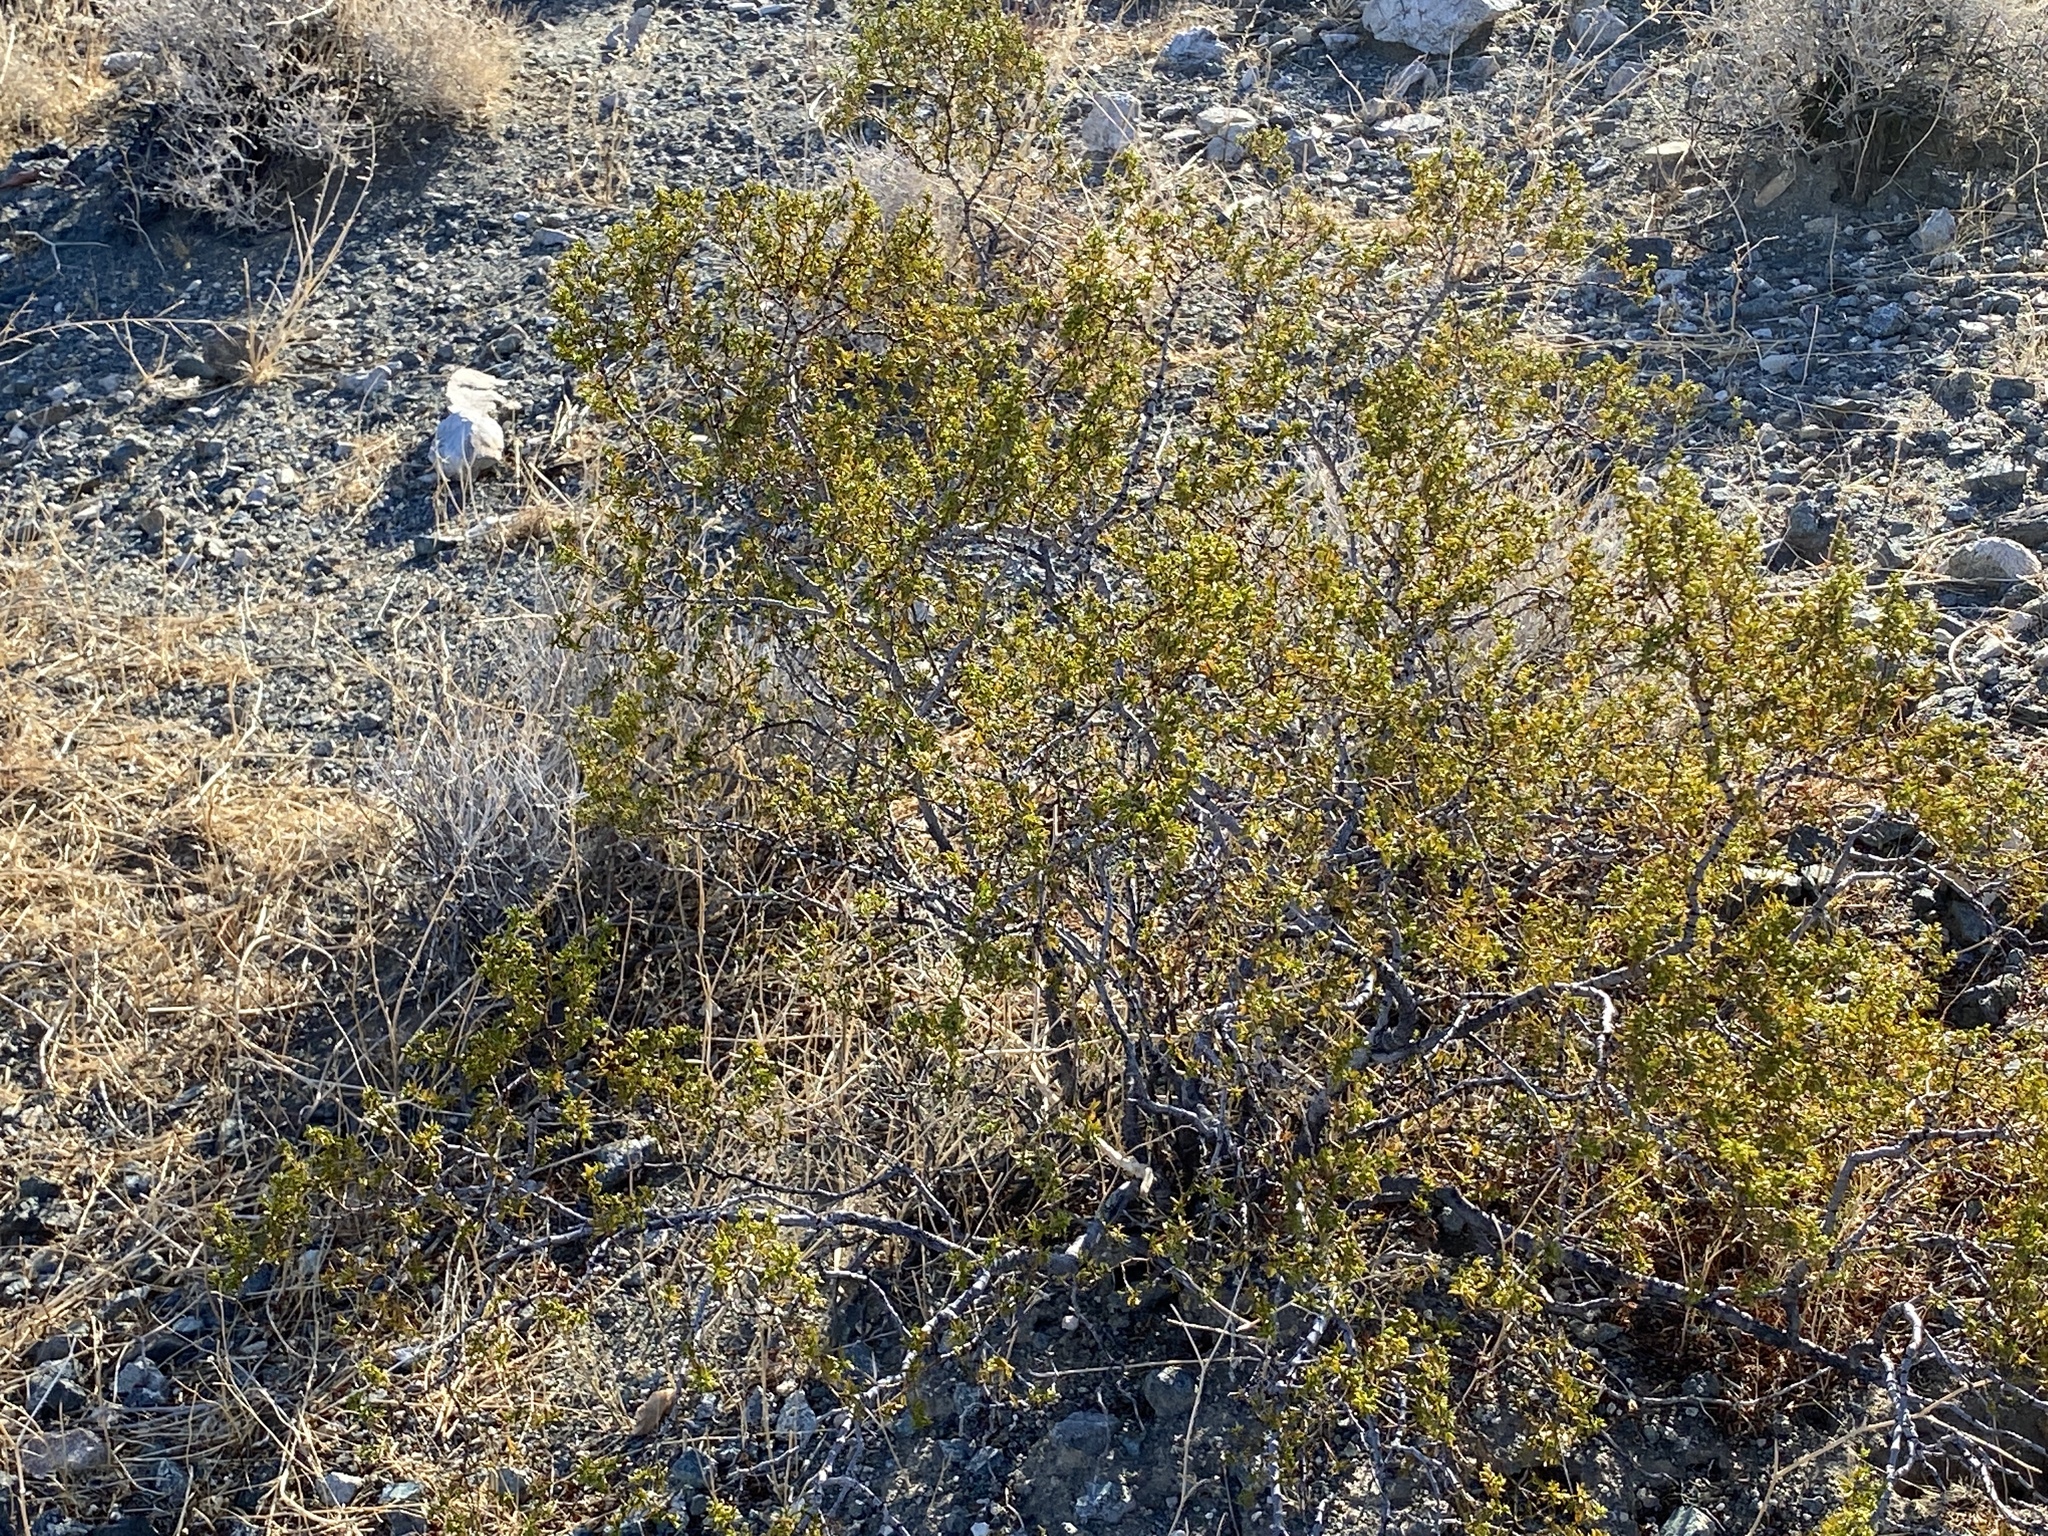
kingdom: Plantae
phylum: Tracheophyta
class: Magnoliopsida
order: Zygophyllales
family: Zygophyllaceae
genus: Larrea
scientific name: Larrea tridentata
